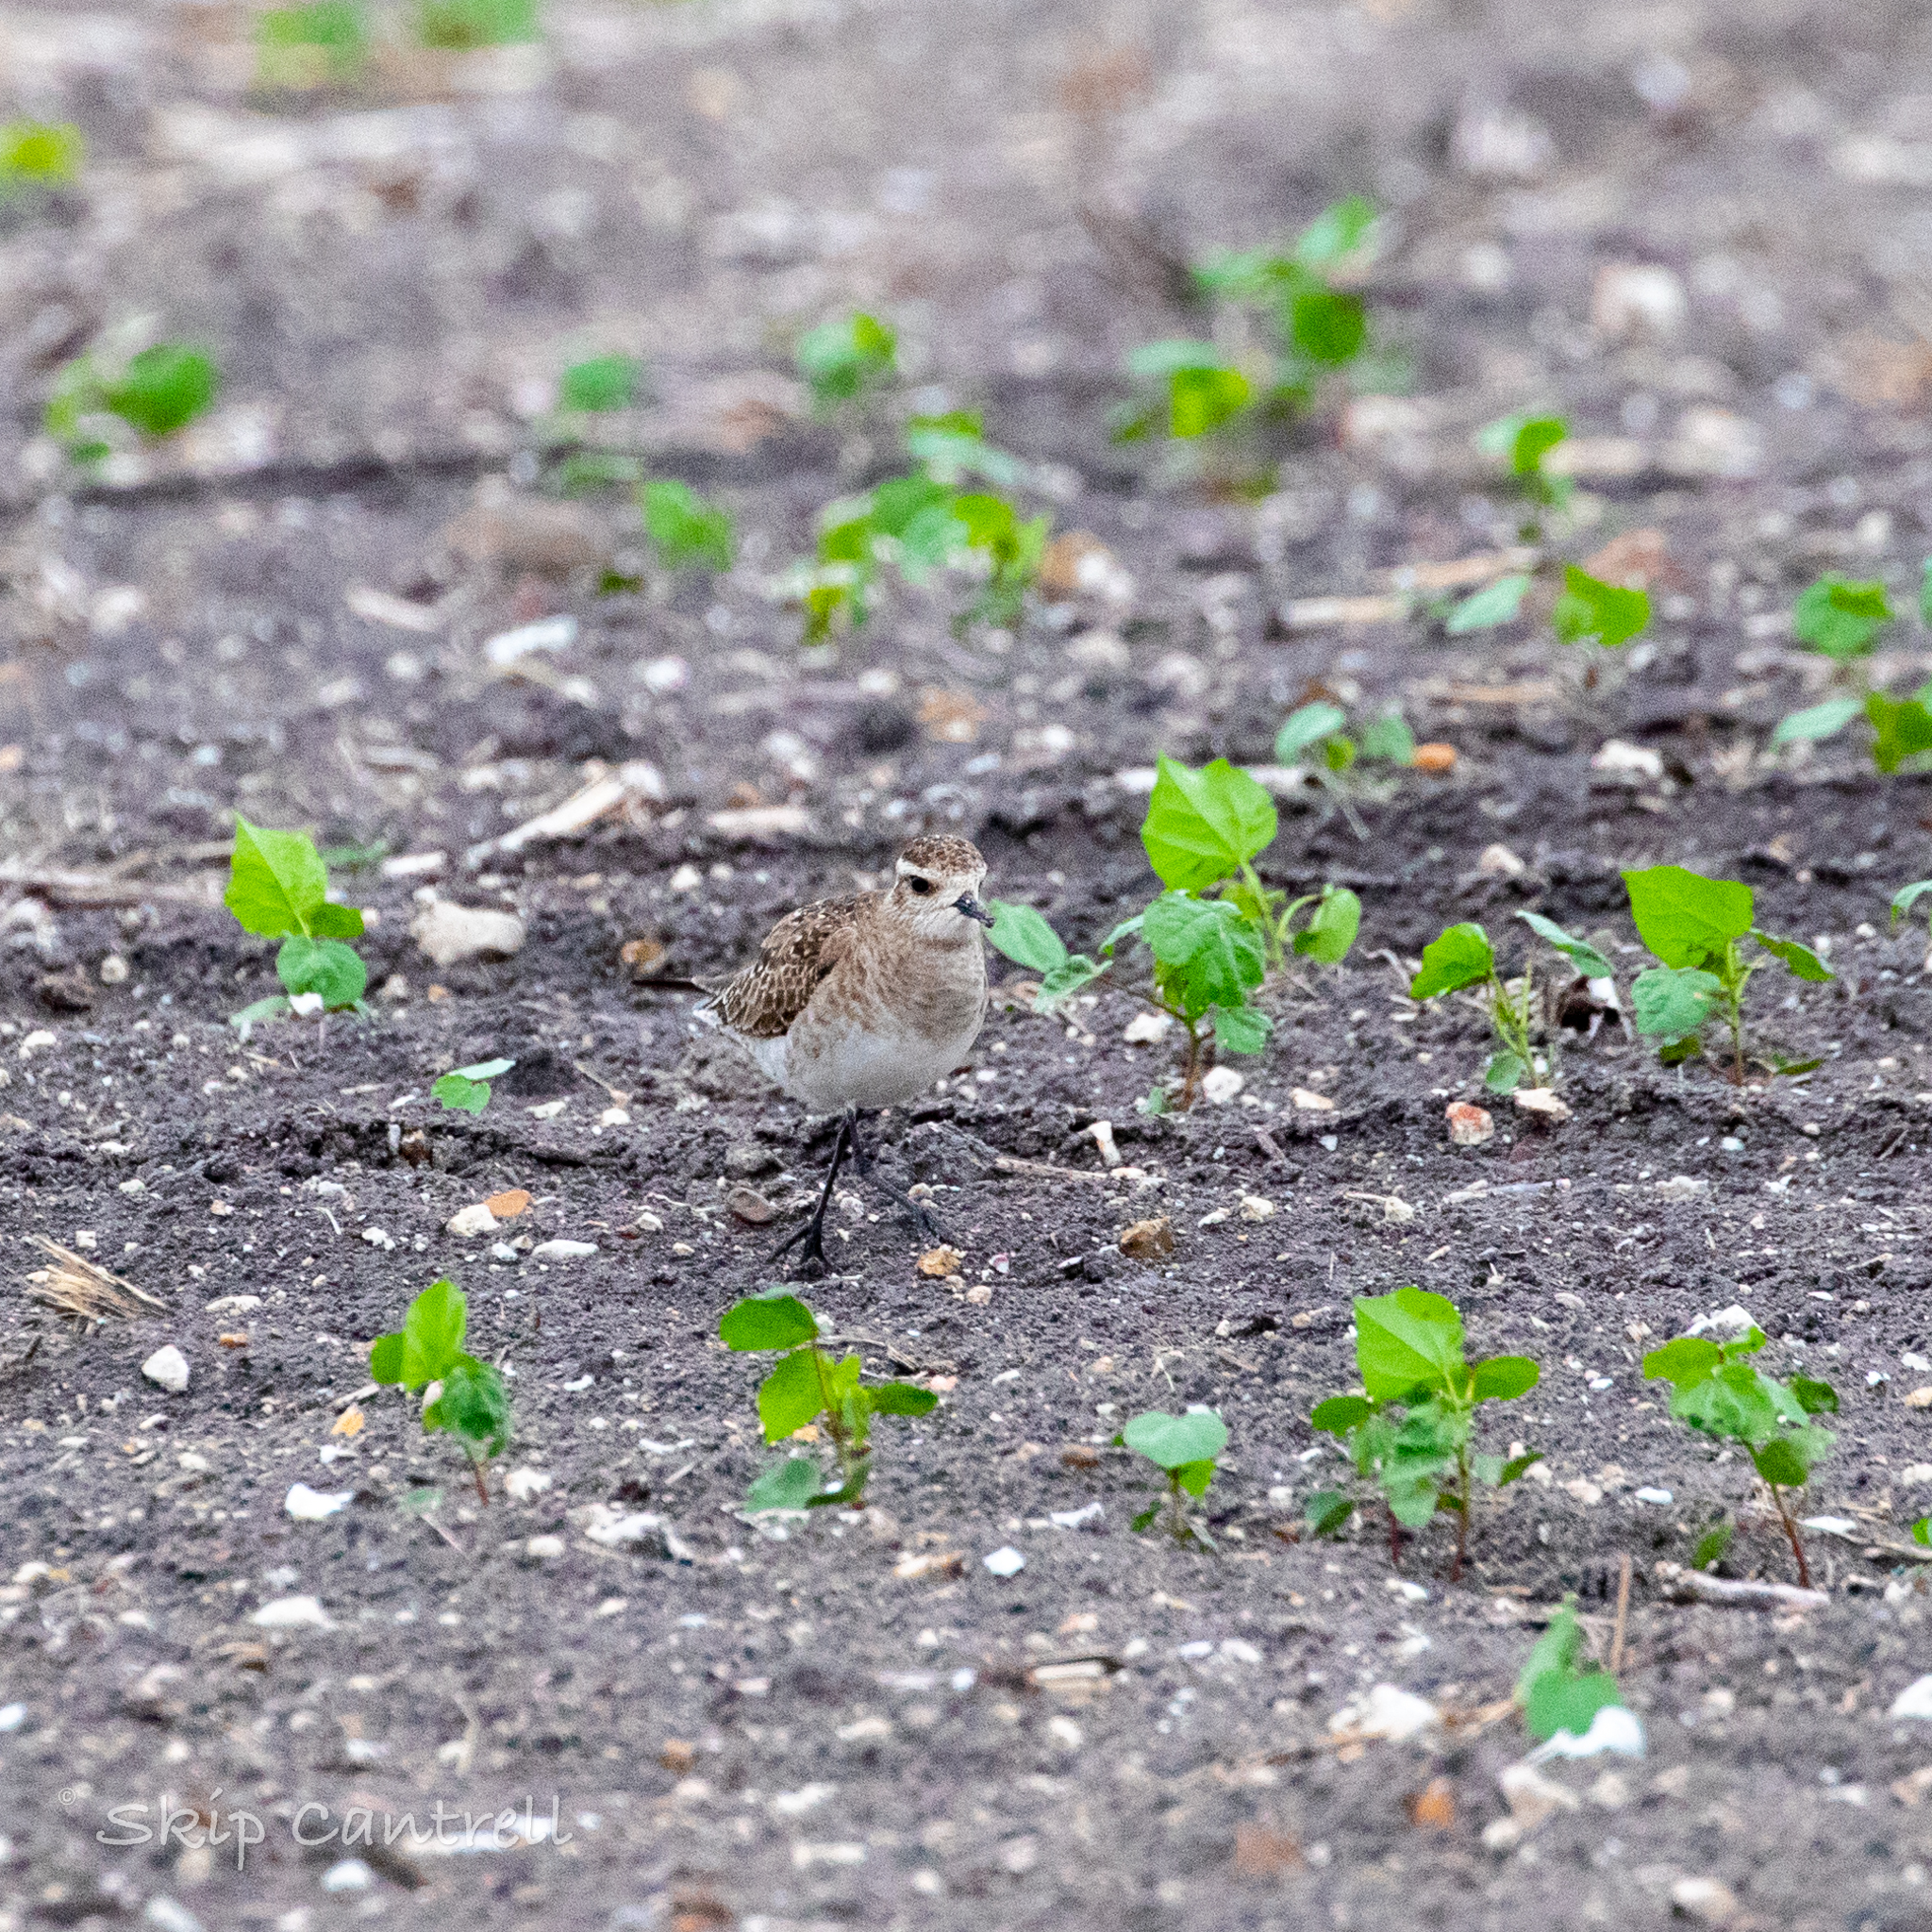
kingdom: Animalia
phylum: Chordata
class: Aves
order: Charadriiformes
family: Charadriidae
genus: Pluvialis
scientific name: Pluvialis dominica
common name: American golden plover
